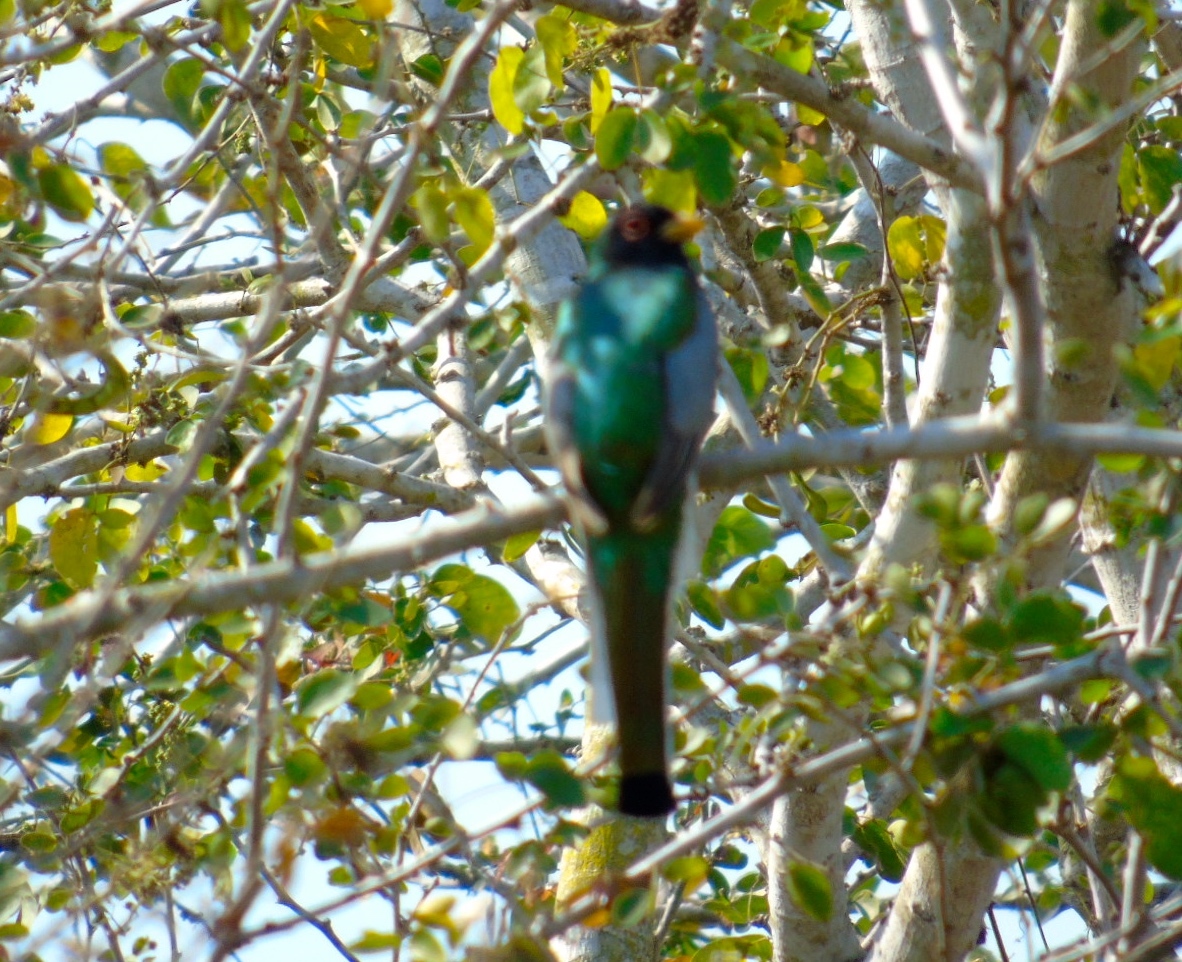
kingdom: Animalia
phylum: Chordata
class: Aves
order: Trogoniformes
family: Trogonidae
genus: Trogon
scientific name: Trogon elegans
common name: Elegant trogon
